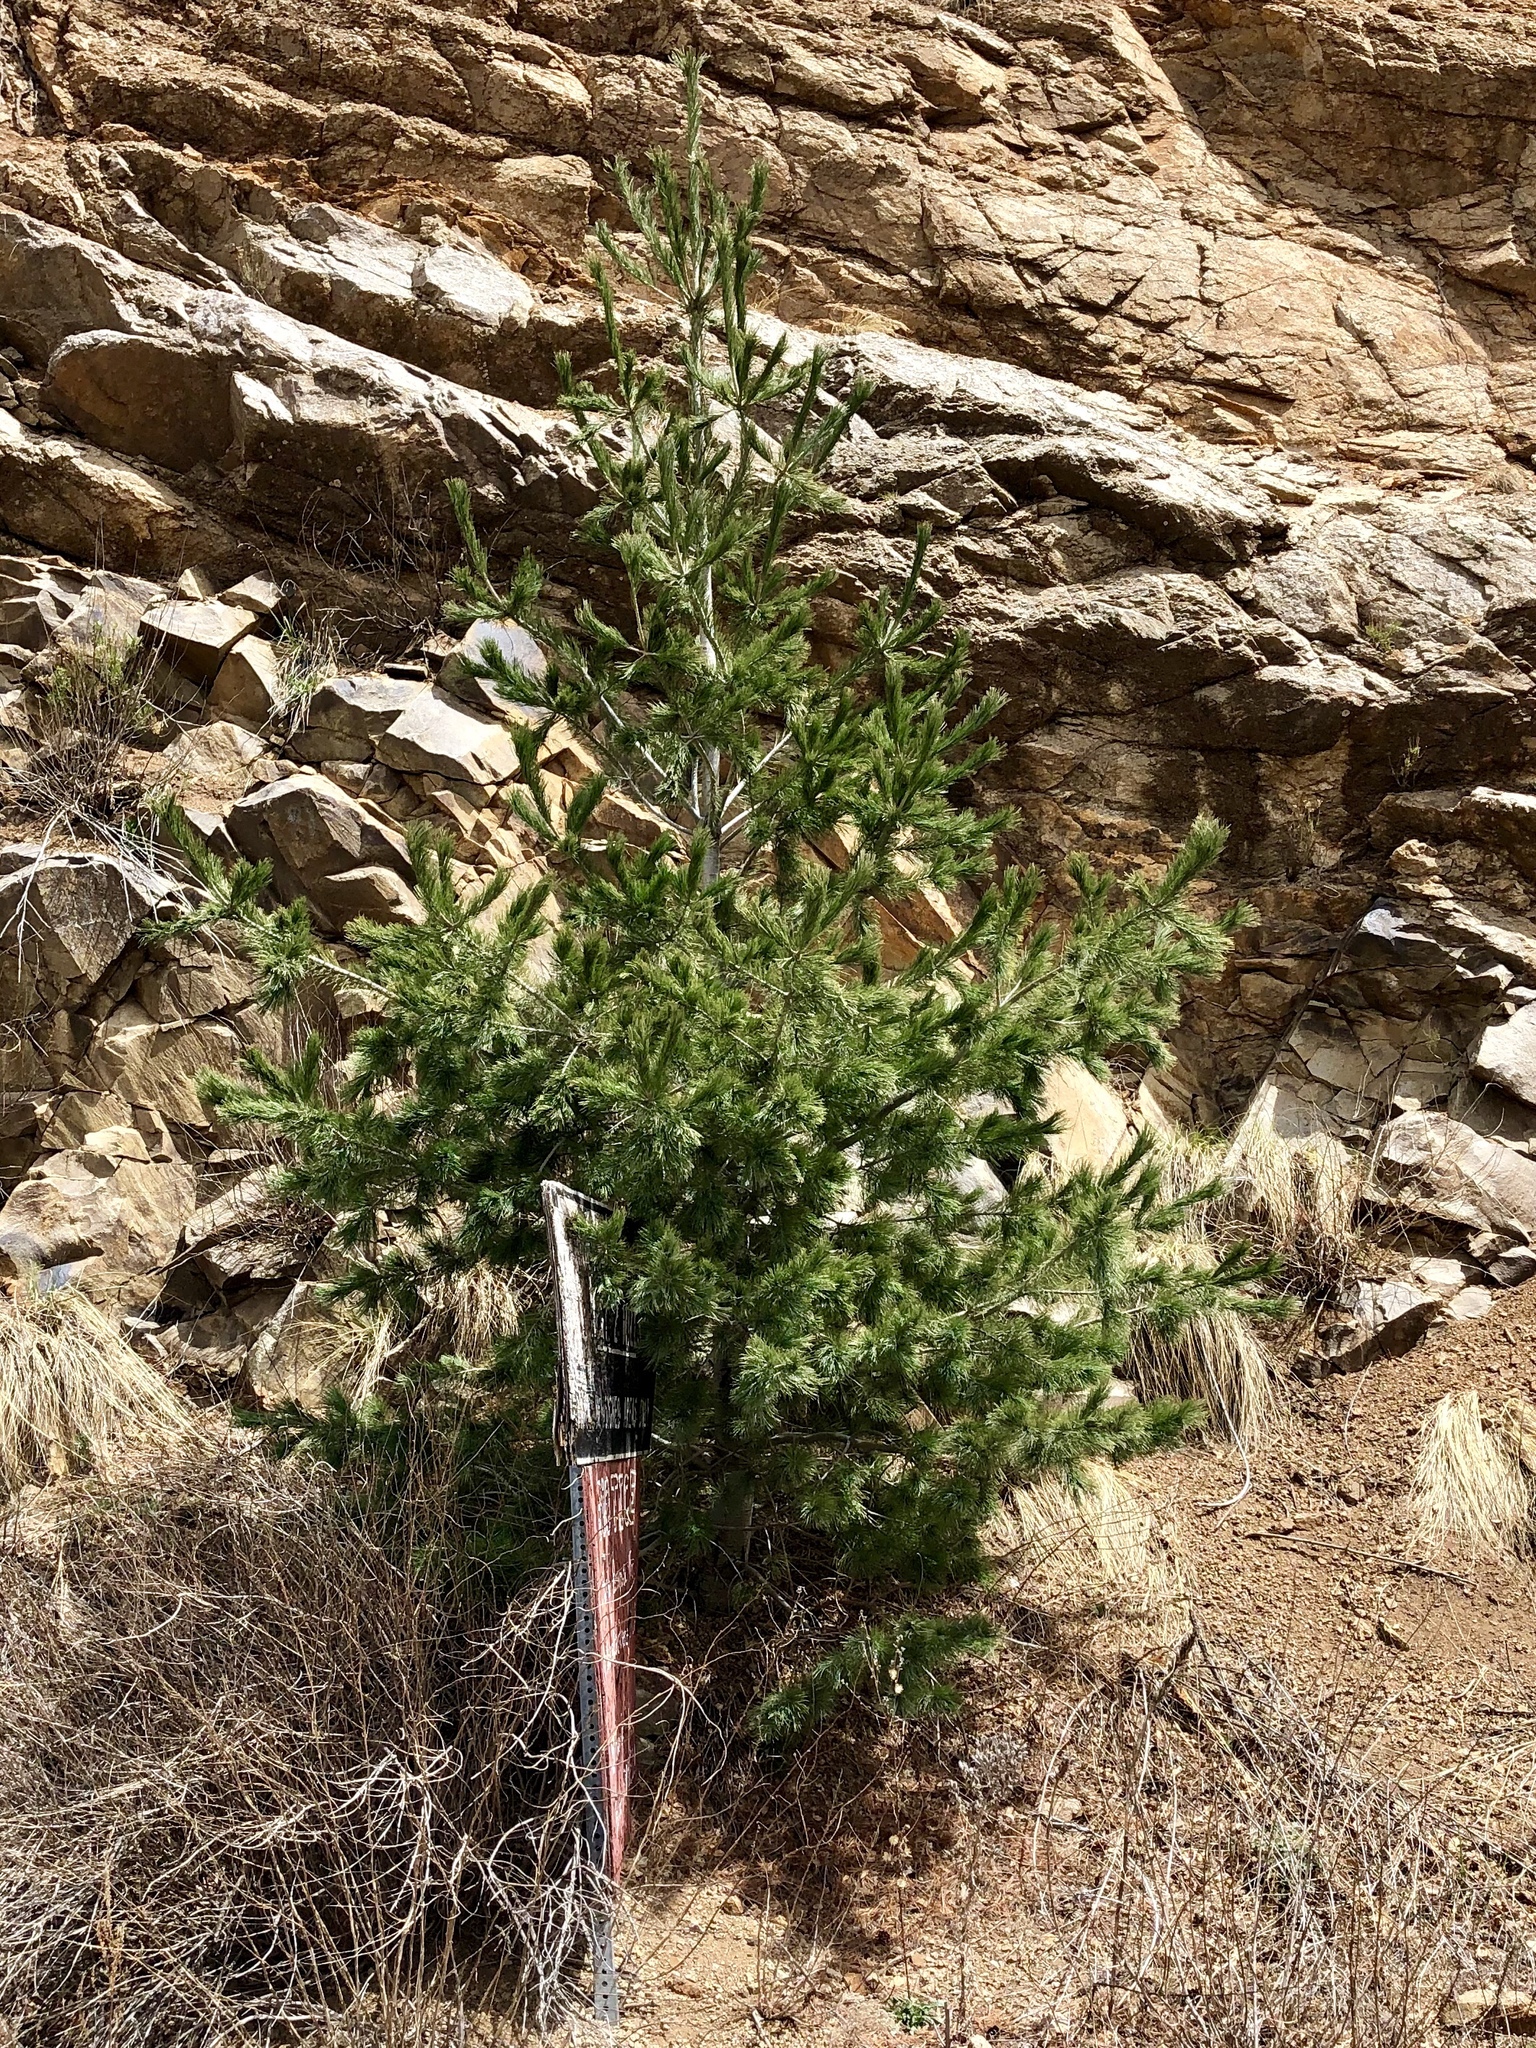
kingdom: Plantae
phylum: Tracheophyta
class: Pinopsida
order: Pinales
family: Pinaceae
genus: Pinus
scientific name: Pinus strobiformis
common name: Southwestern white pine
